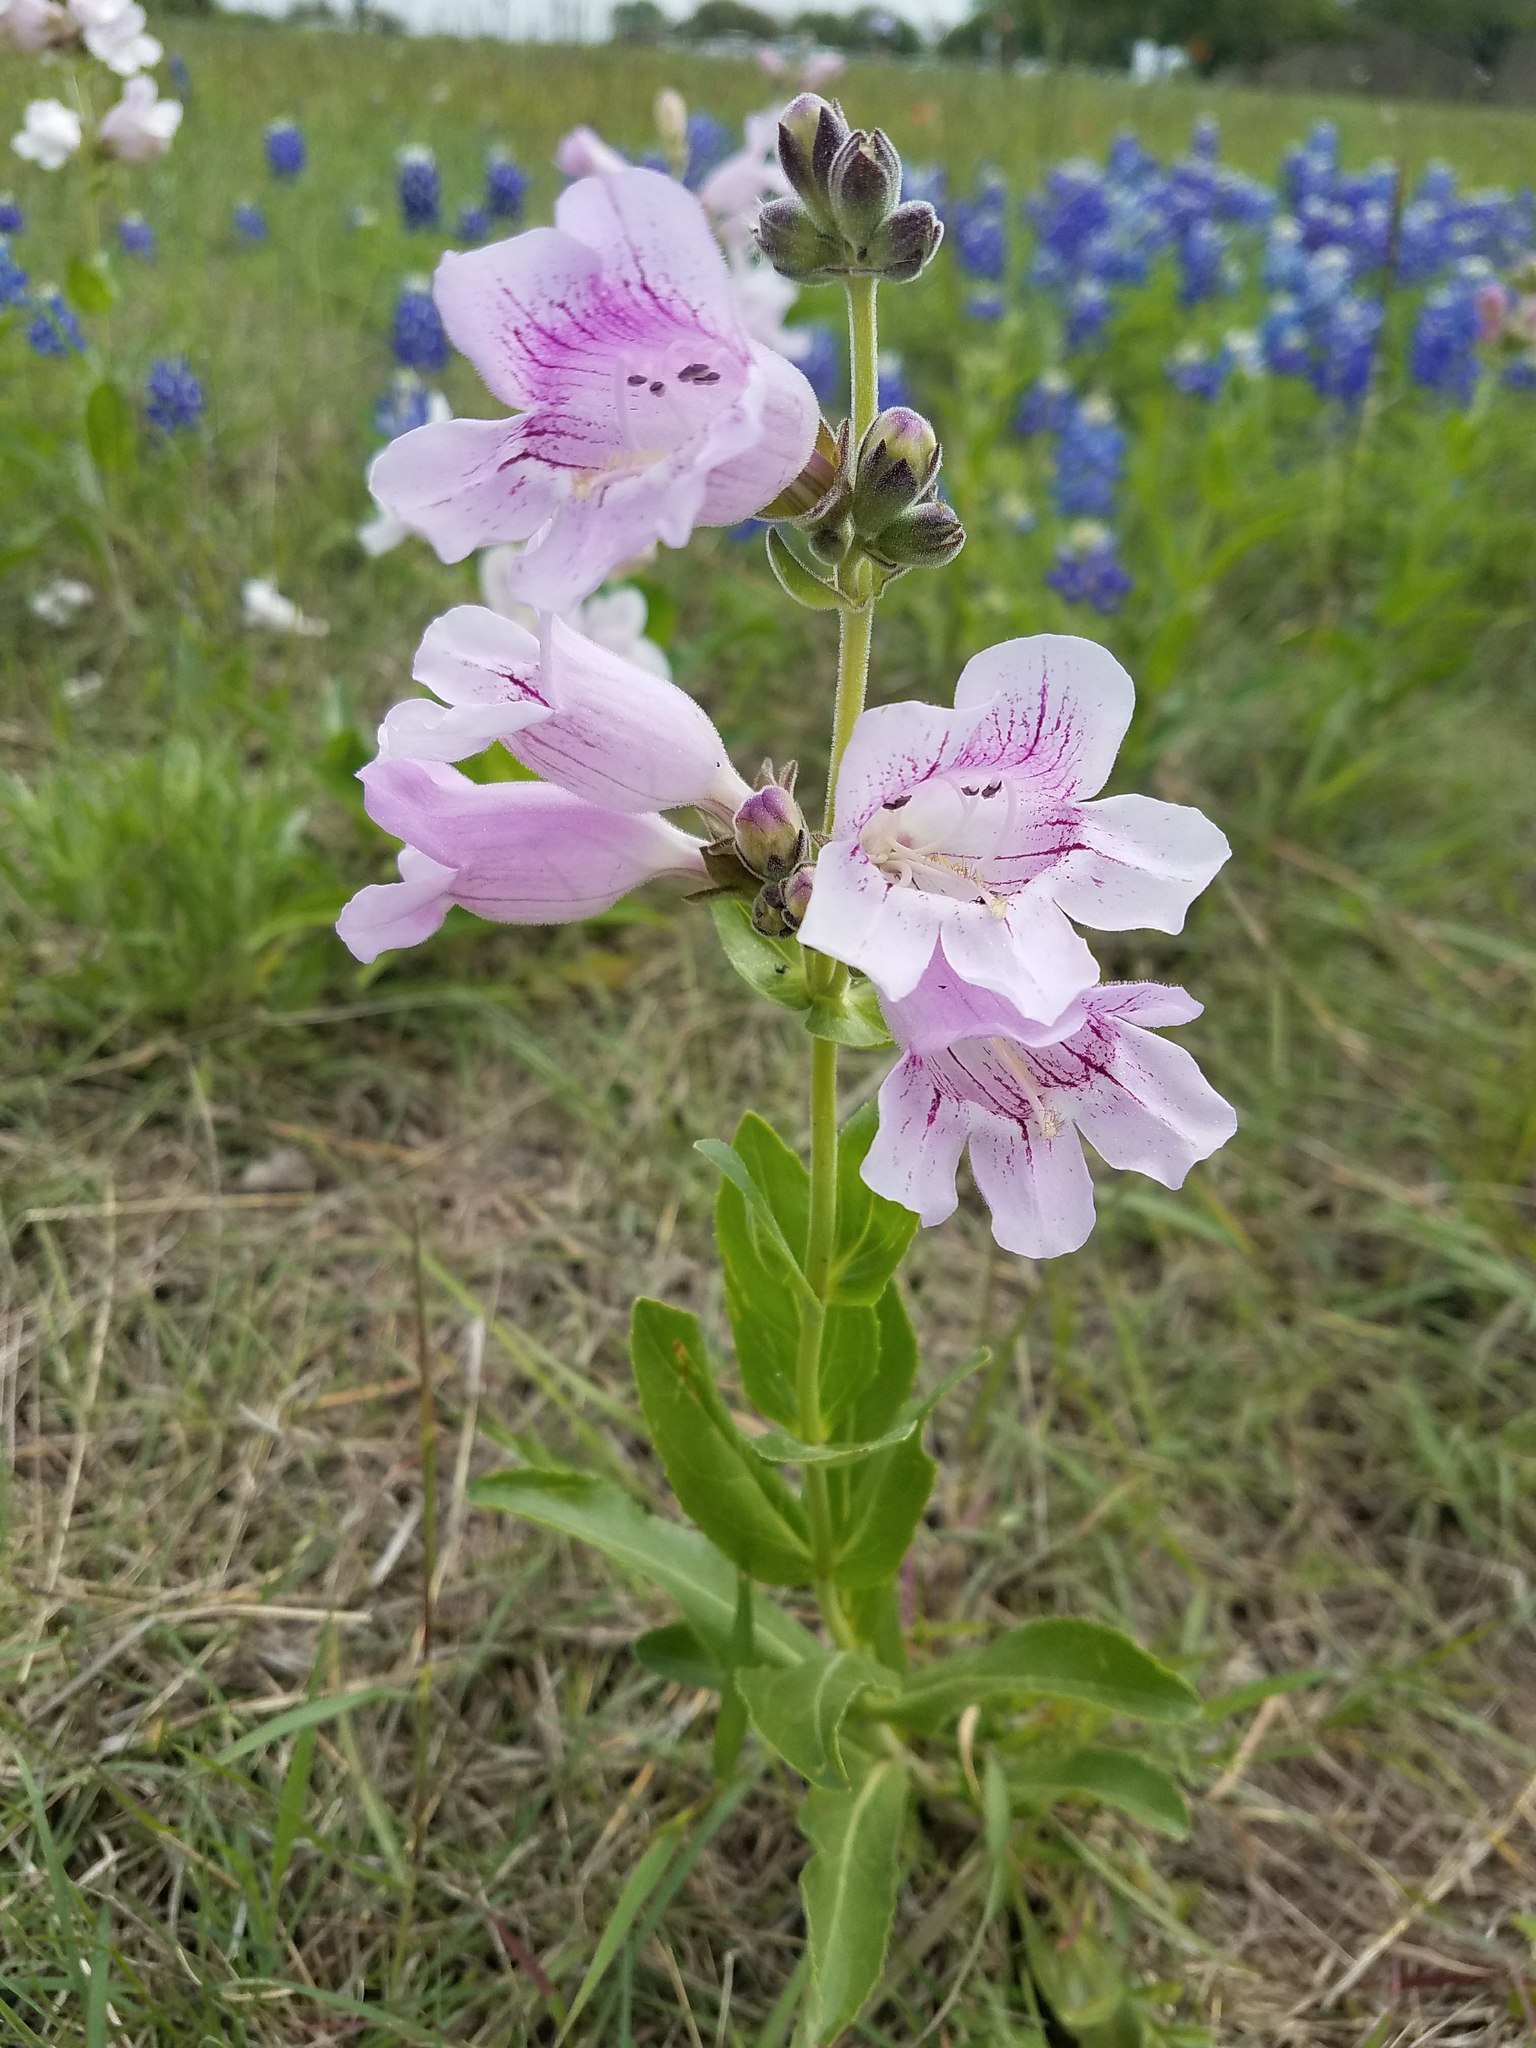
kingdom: Plantae
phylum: Tracheophyta
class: Magnoliopsida
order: Lamiales
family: Plantaginaceae
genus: Penstemon
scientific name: Penstemon cobaea
